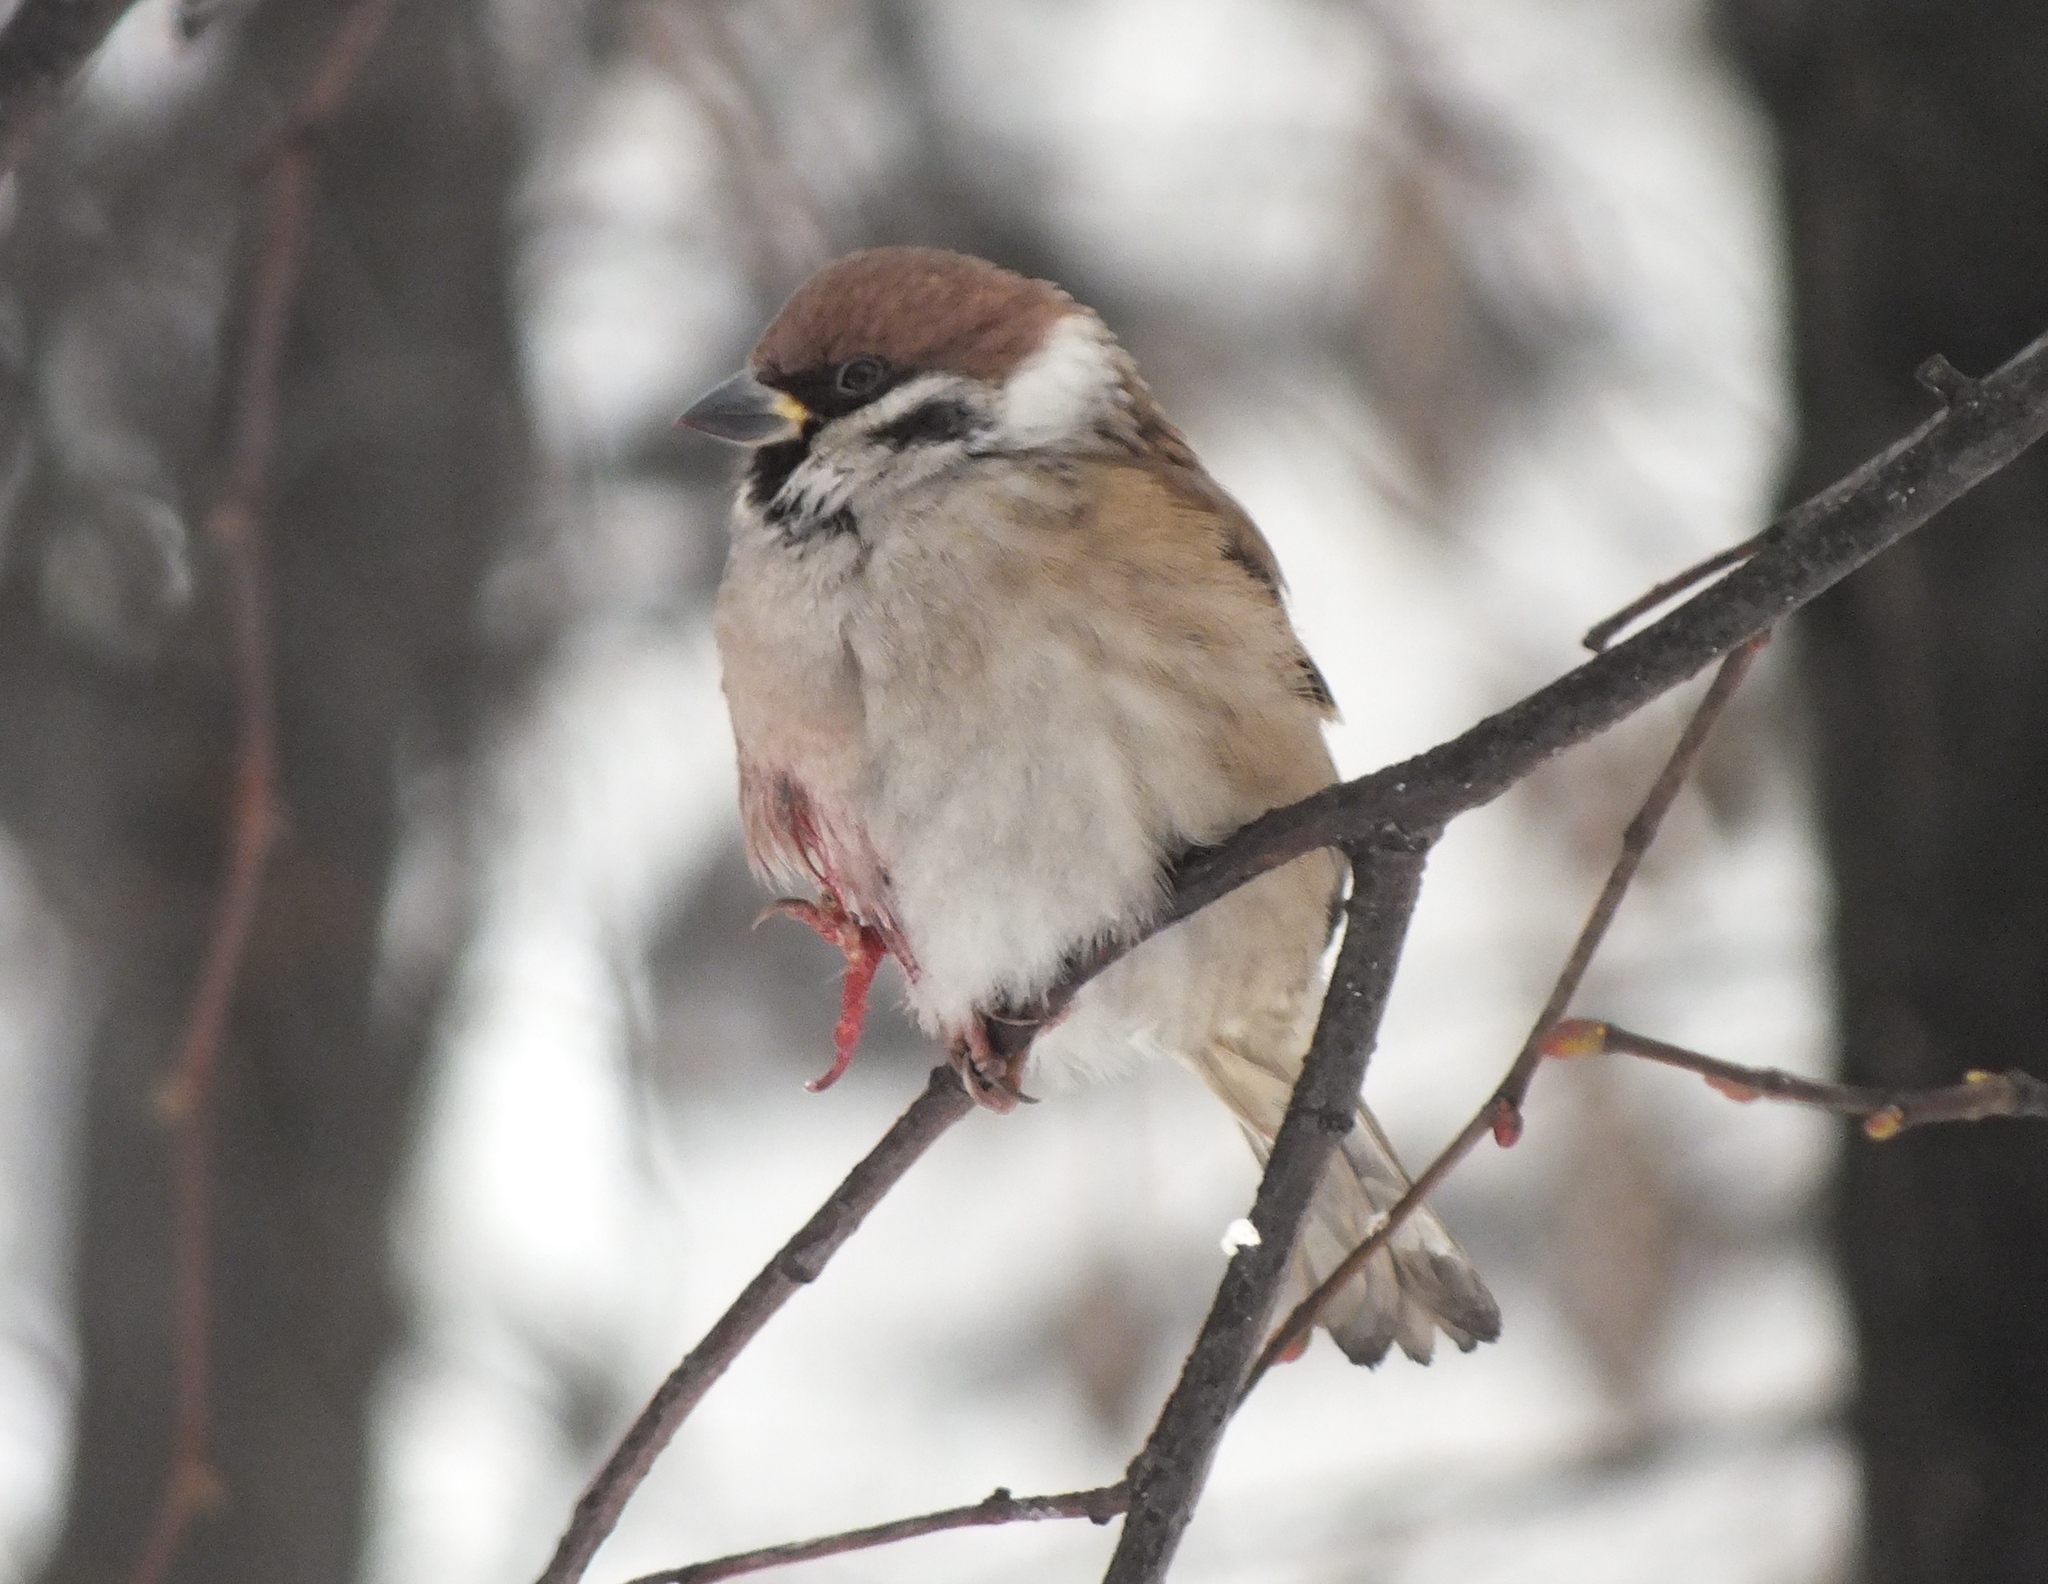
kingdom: Animalia
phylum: Chordata
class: Aves
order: Passeriformes
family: Passeridae
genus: Passer
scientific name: Passer montanus
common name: Eurasian tree sparrow
